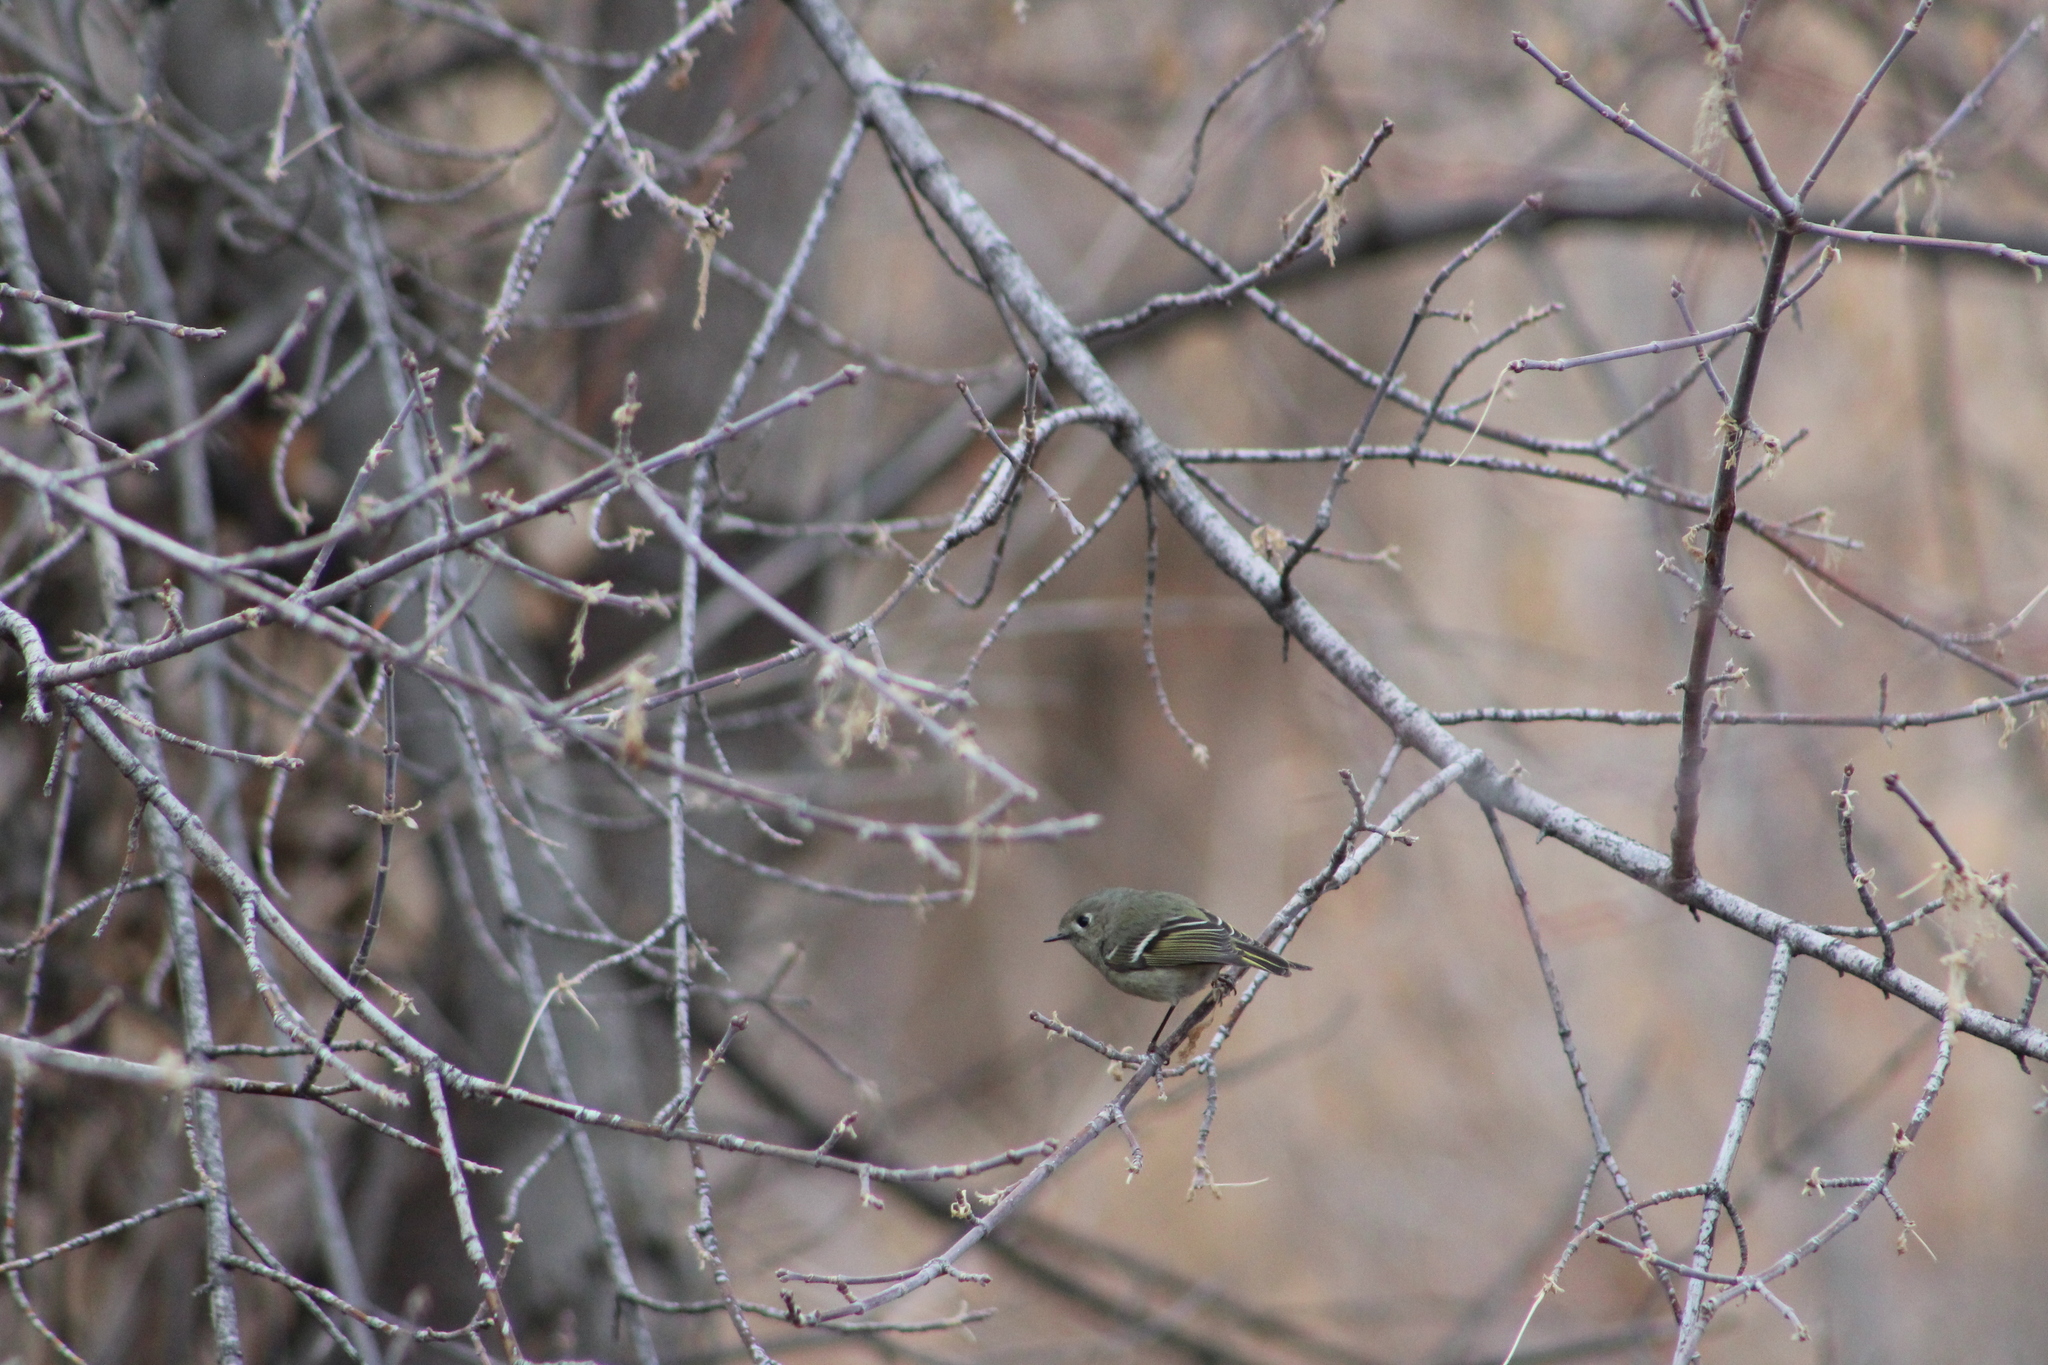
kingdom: Animalia
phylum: Chordata
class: Aves
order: Passeriformes
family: Regulidae
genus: Regulus
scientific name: Regulus calendula
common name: Ruby-crowned kinglet
